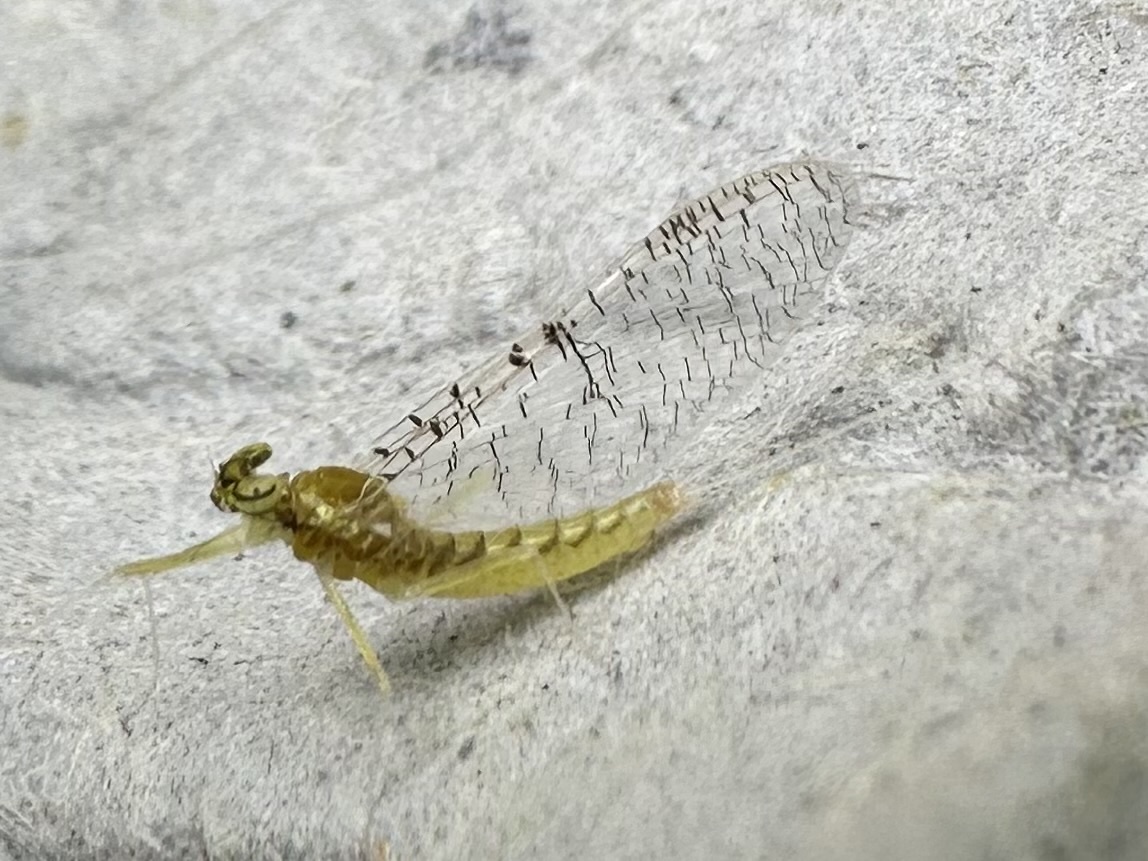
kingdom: Animalia
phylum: Arthropoda
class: Insecta
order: Ephemeroptera
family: Heptageniidae
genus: Leucrocuta
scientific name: Leucrocuta minerva
